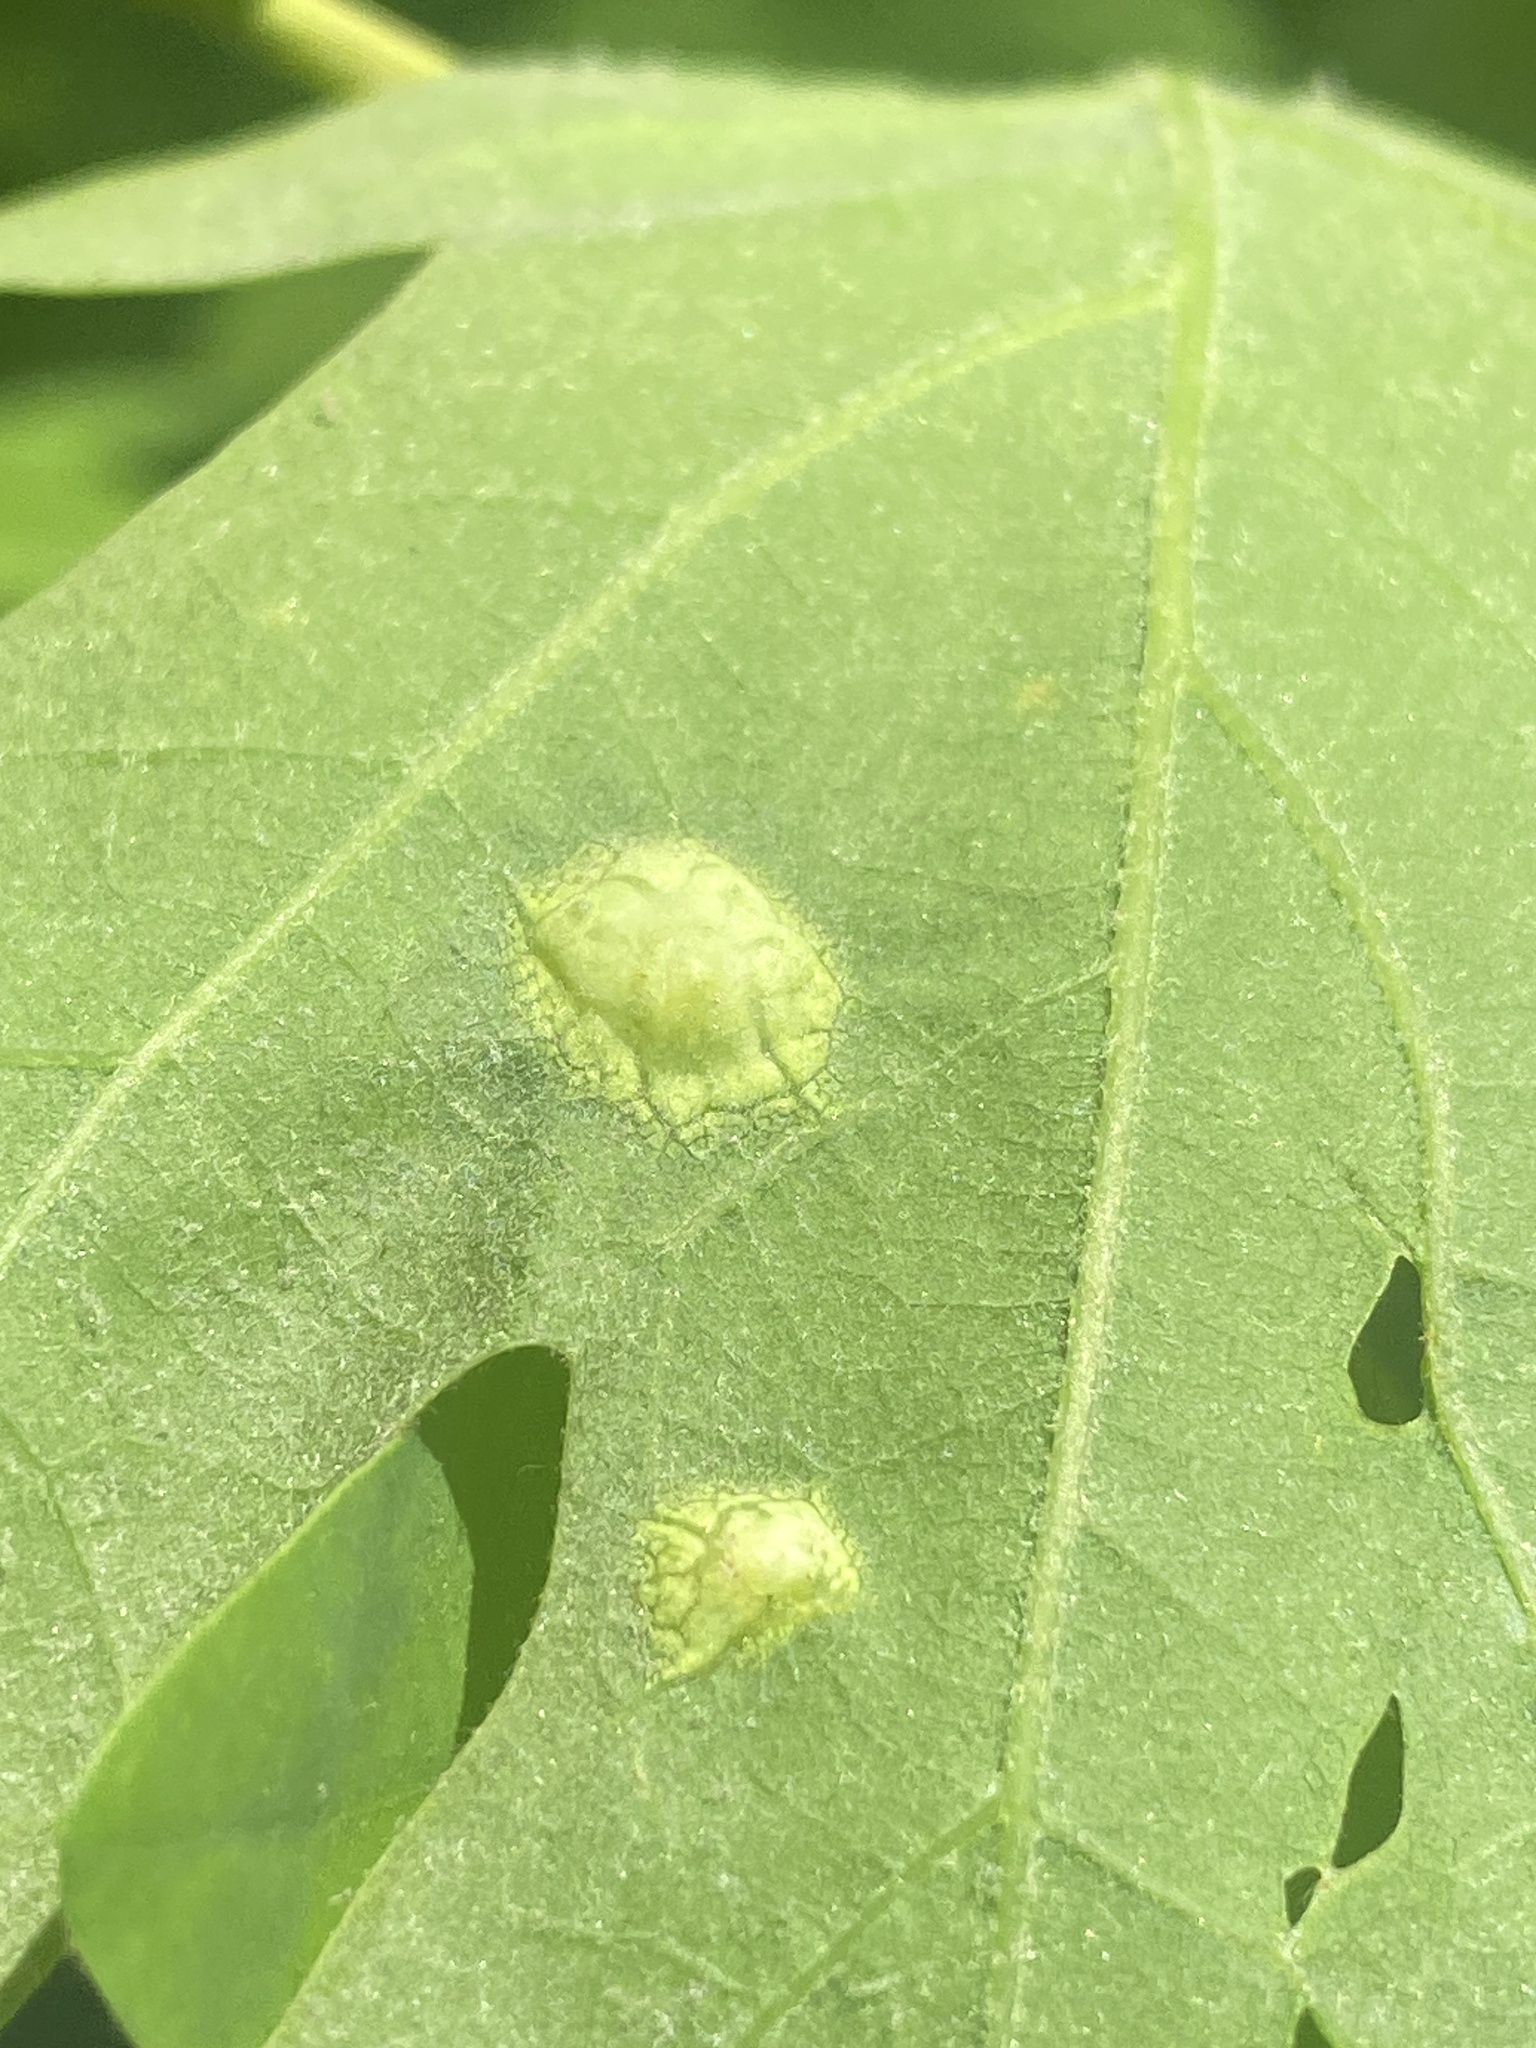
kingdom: Animalia
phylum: Arthropoda
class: Insecta
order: Hymenoptera
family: Cynipidae
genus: Callirhytis
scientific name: Callirhytis
